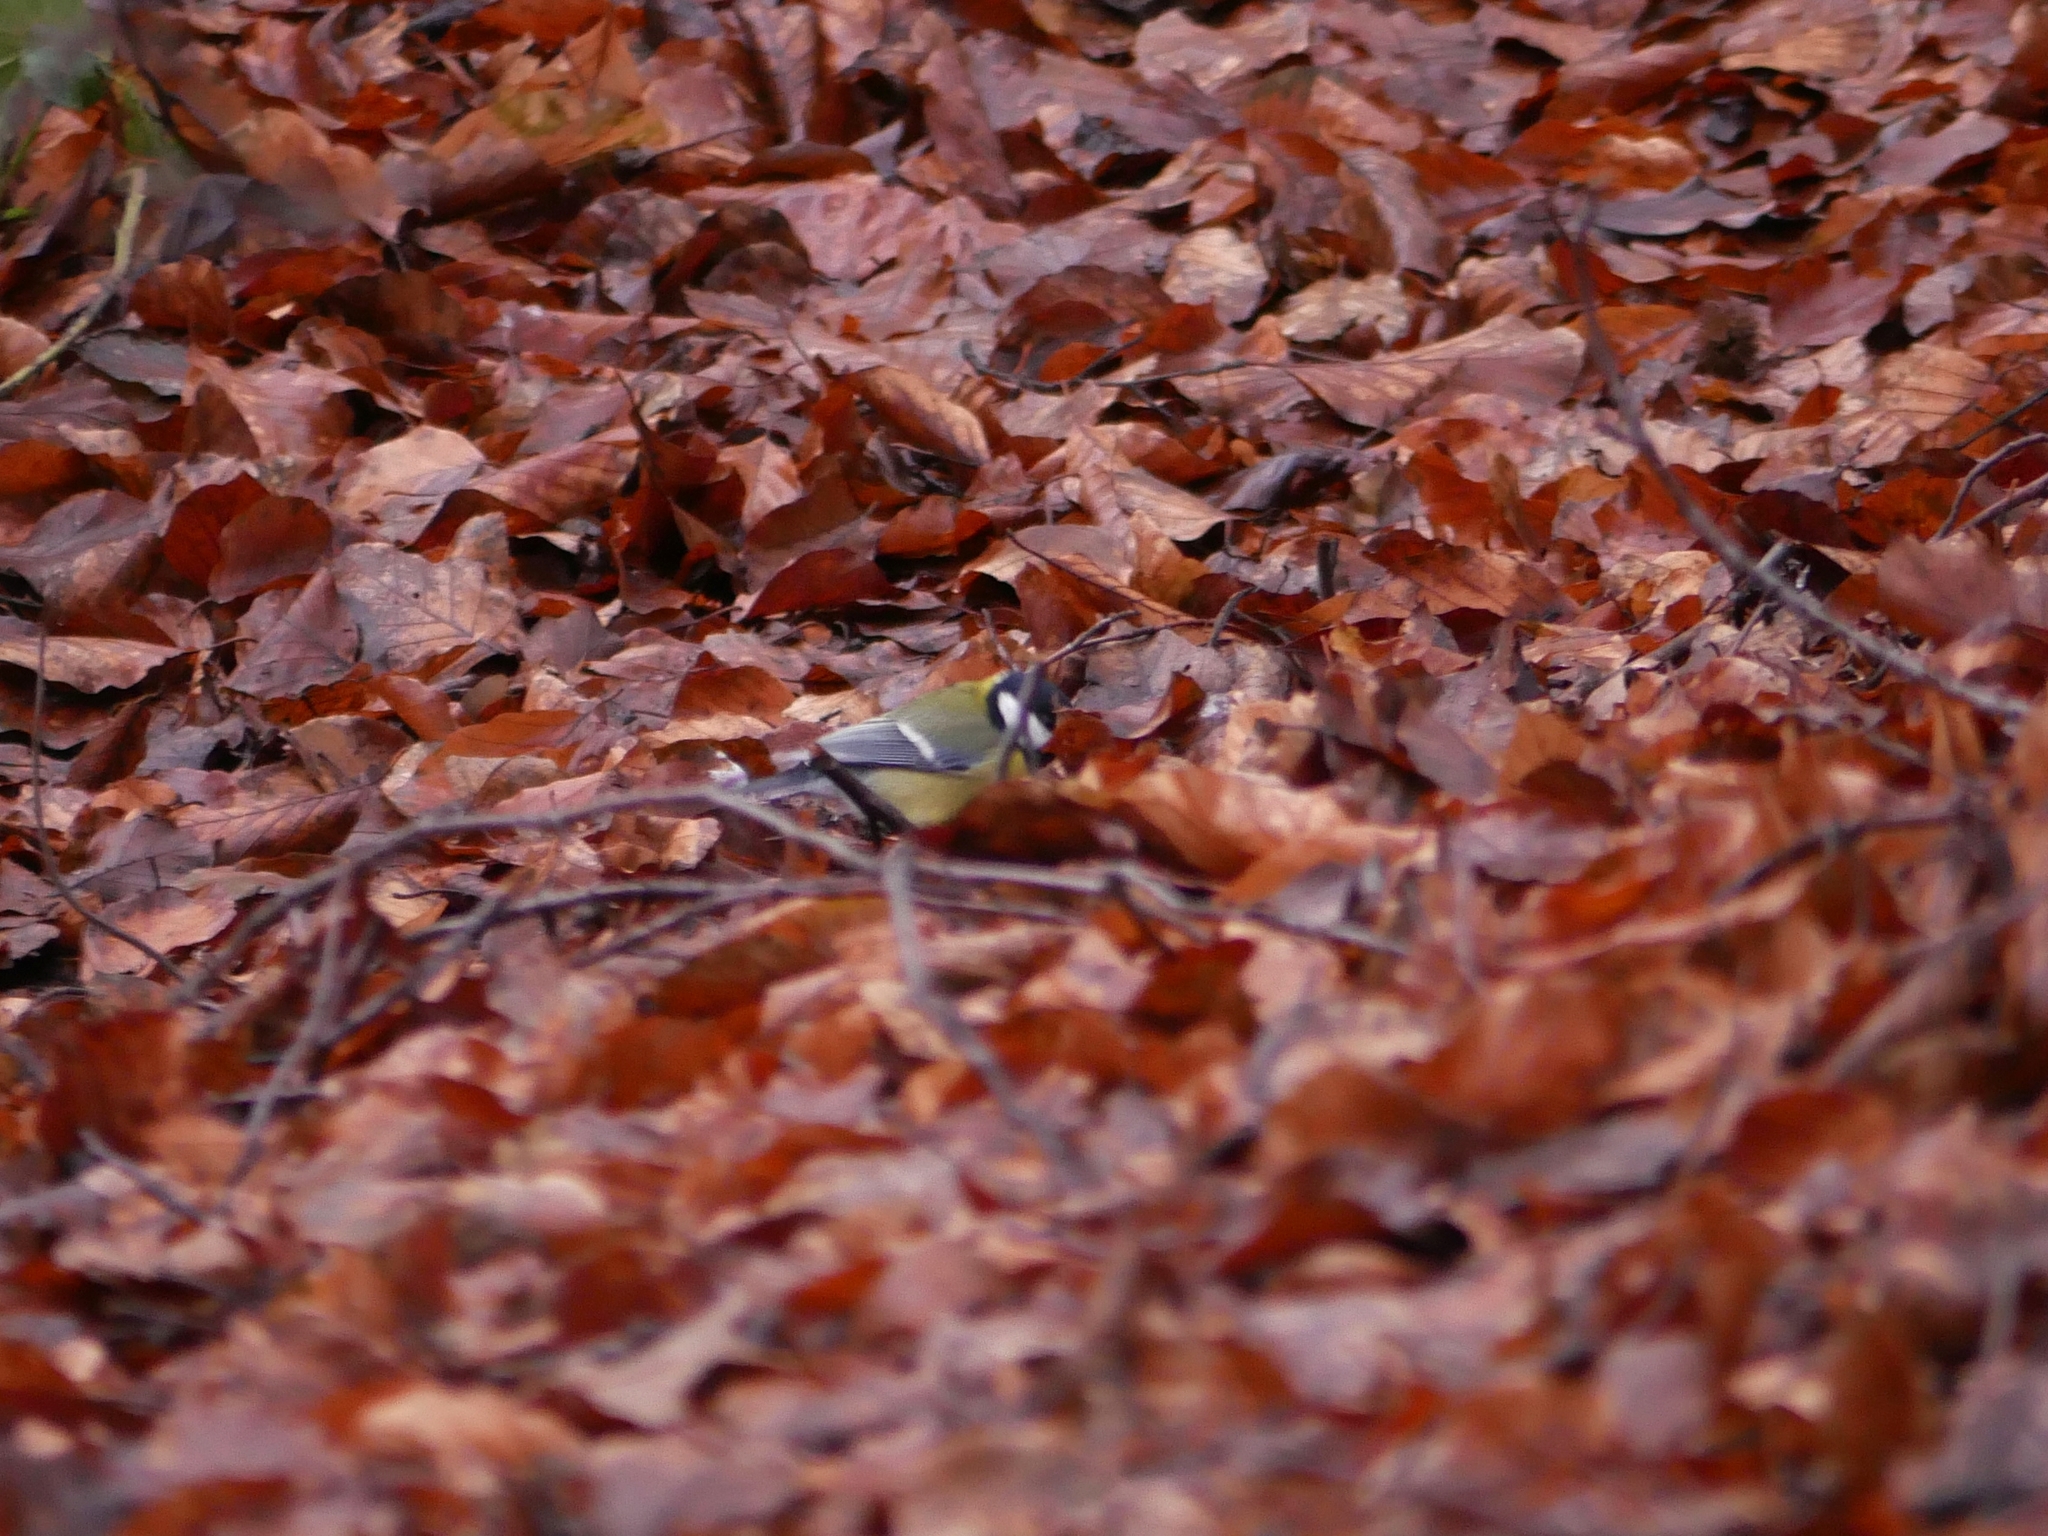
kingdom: Animalia
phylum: Chordata
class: Aves
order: Passeriformes
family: Paridae
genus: Parus
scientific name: Parus major
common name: Great tit
